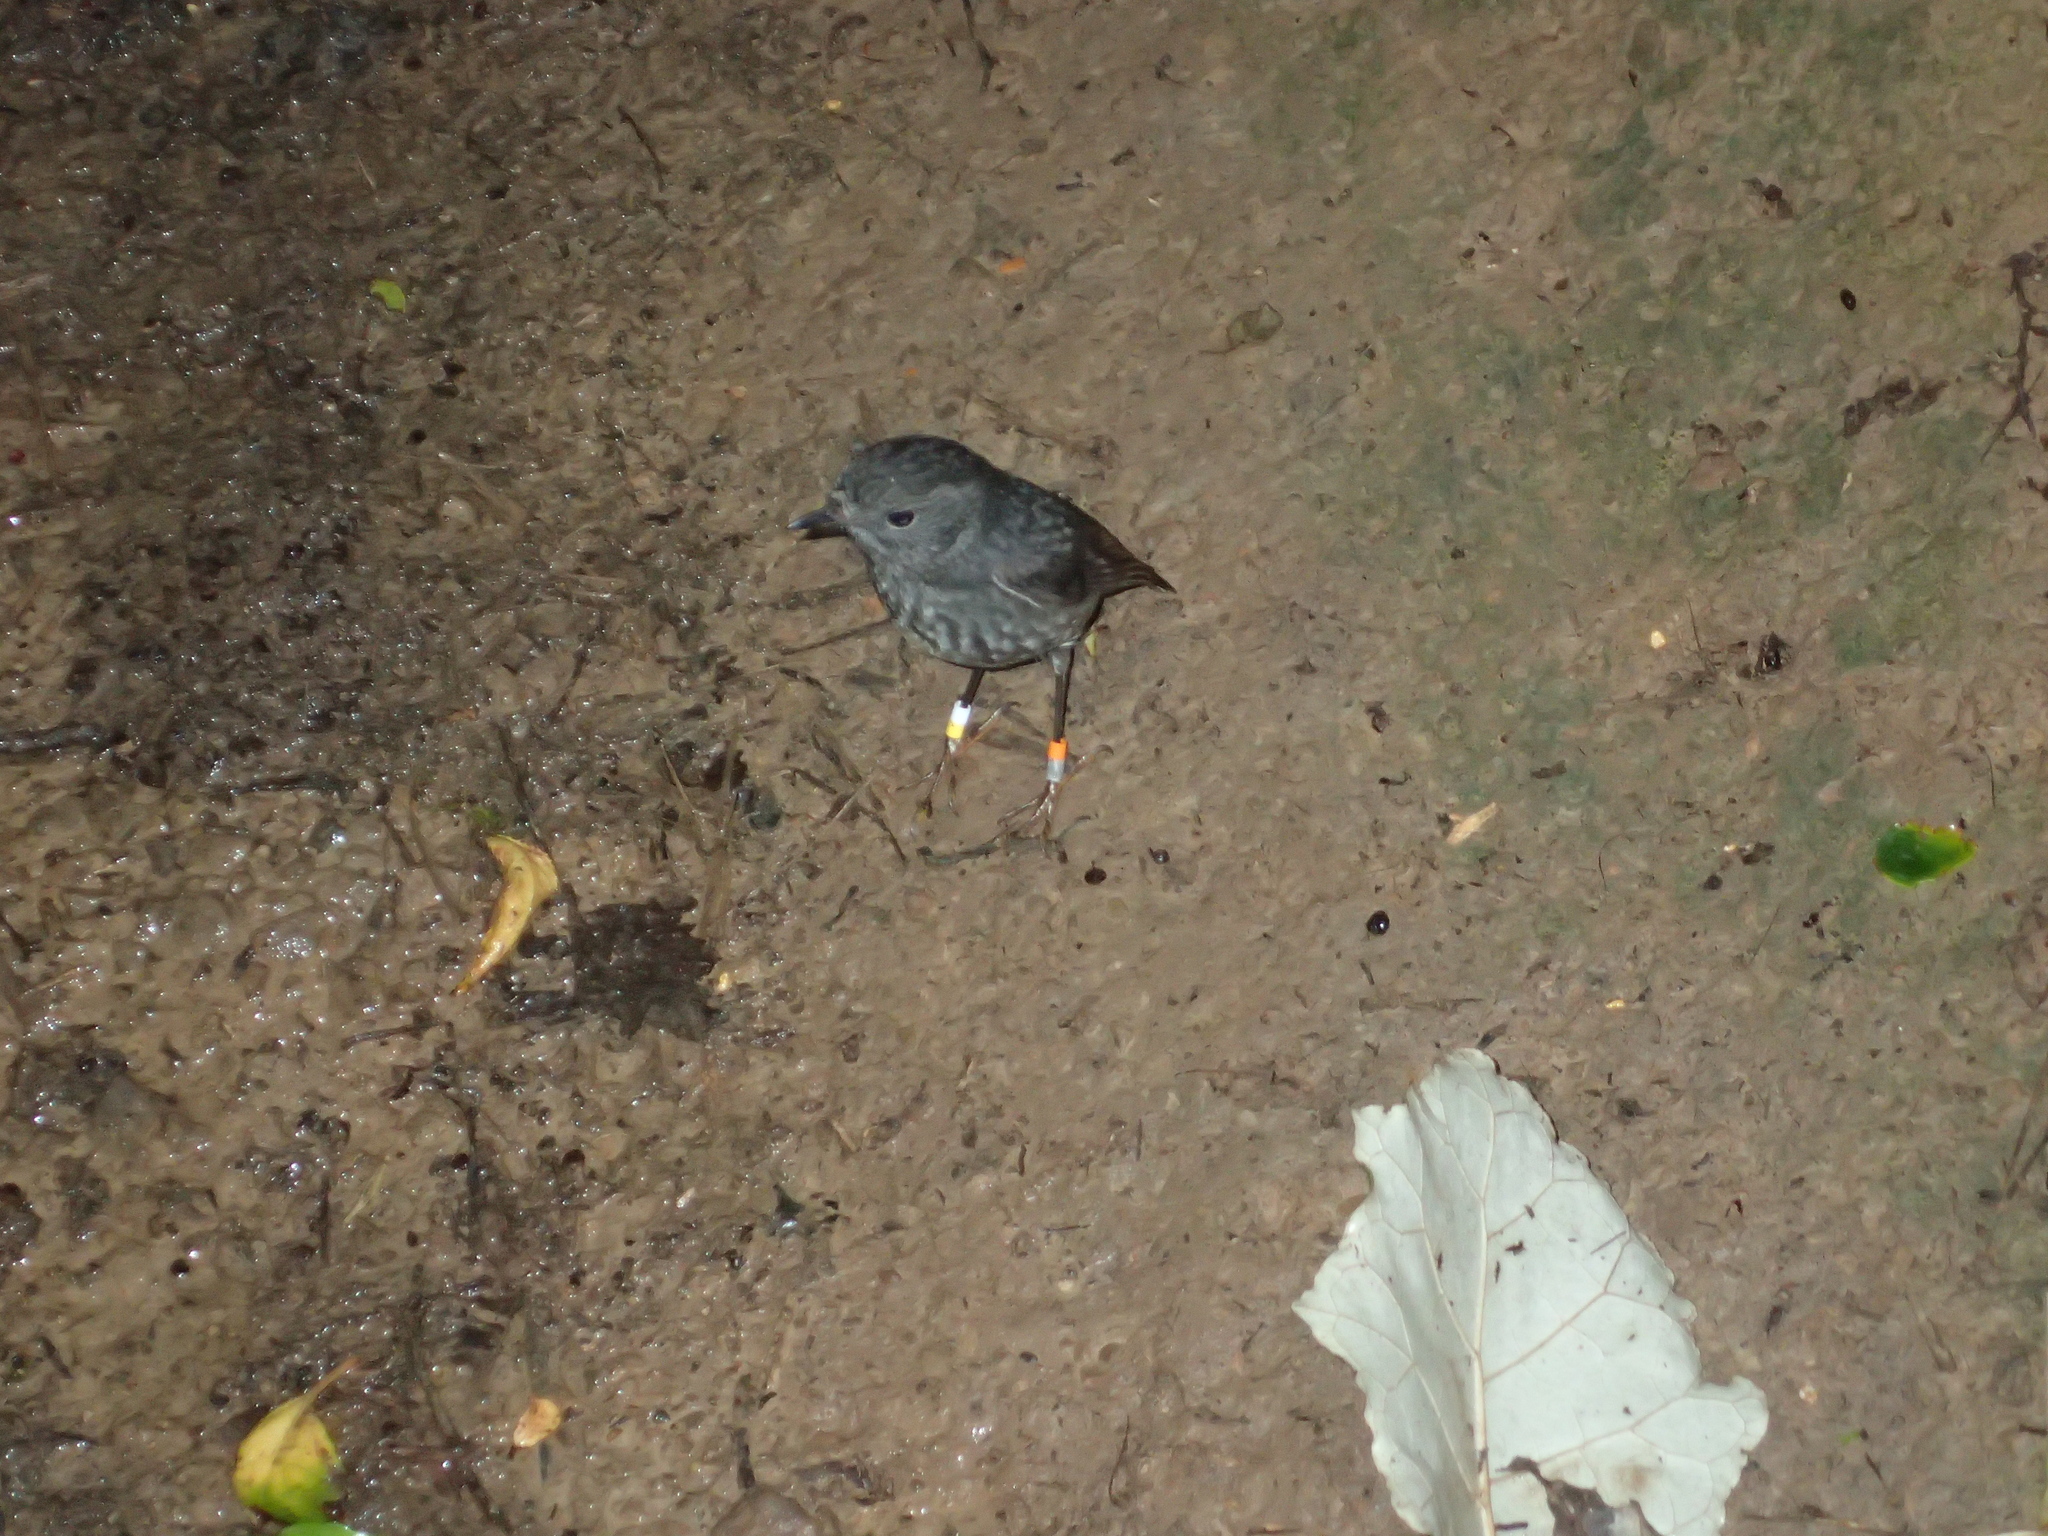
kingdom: Animalia
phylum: Chordata
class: Aves
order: Passeriformes
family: Petroicidae
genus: Petroica
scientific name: Petroica australis
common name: New zealand robin
